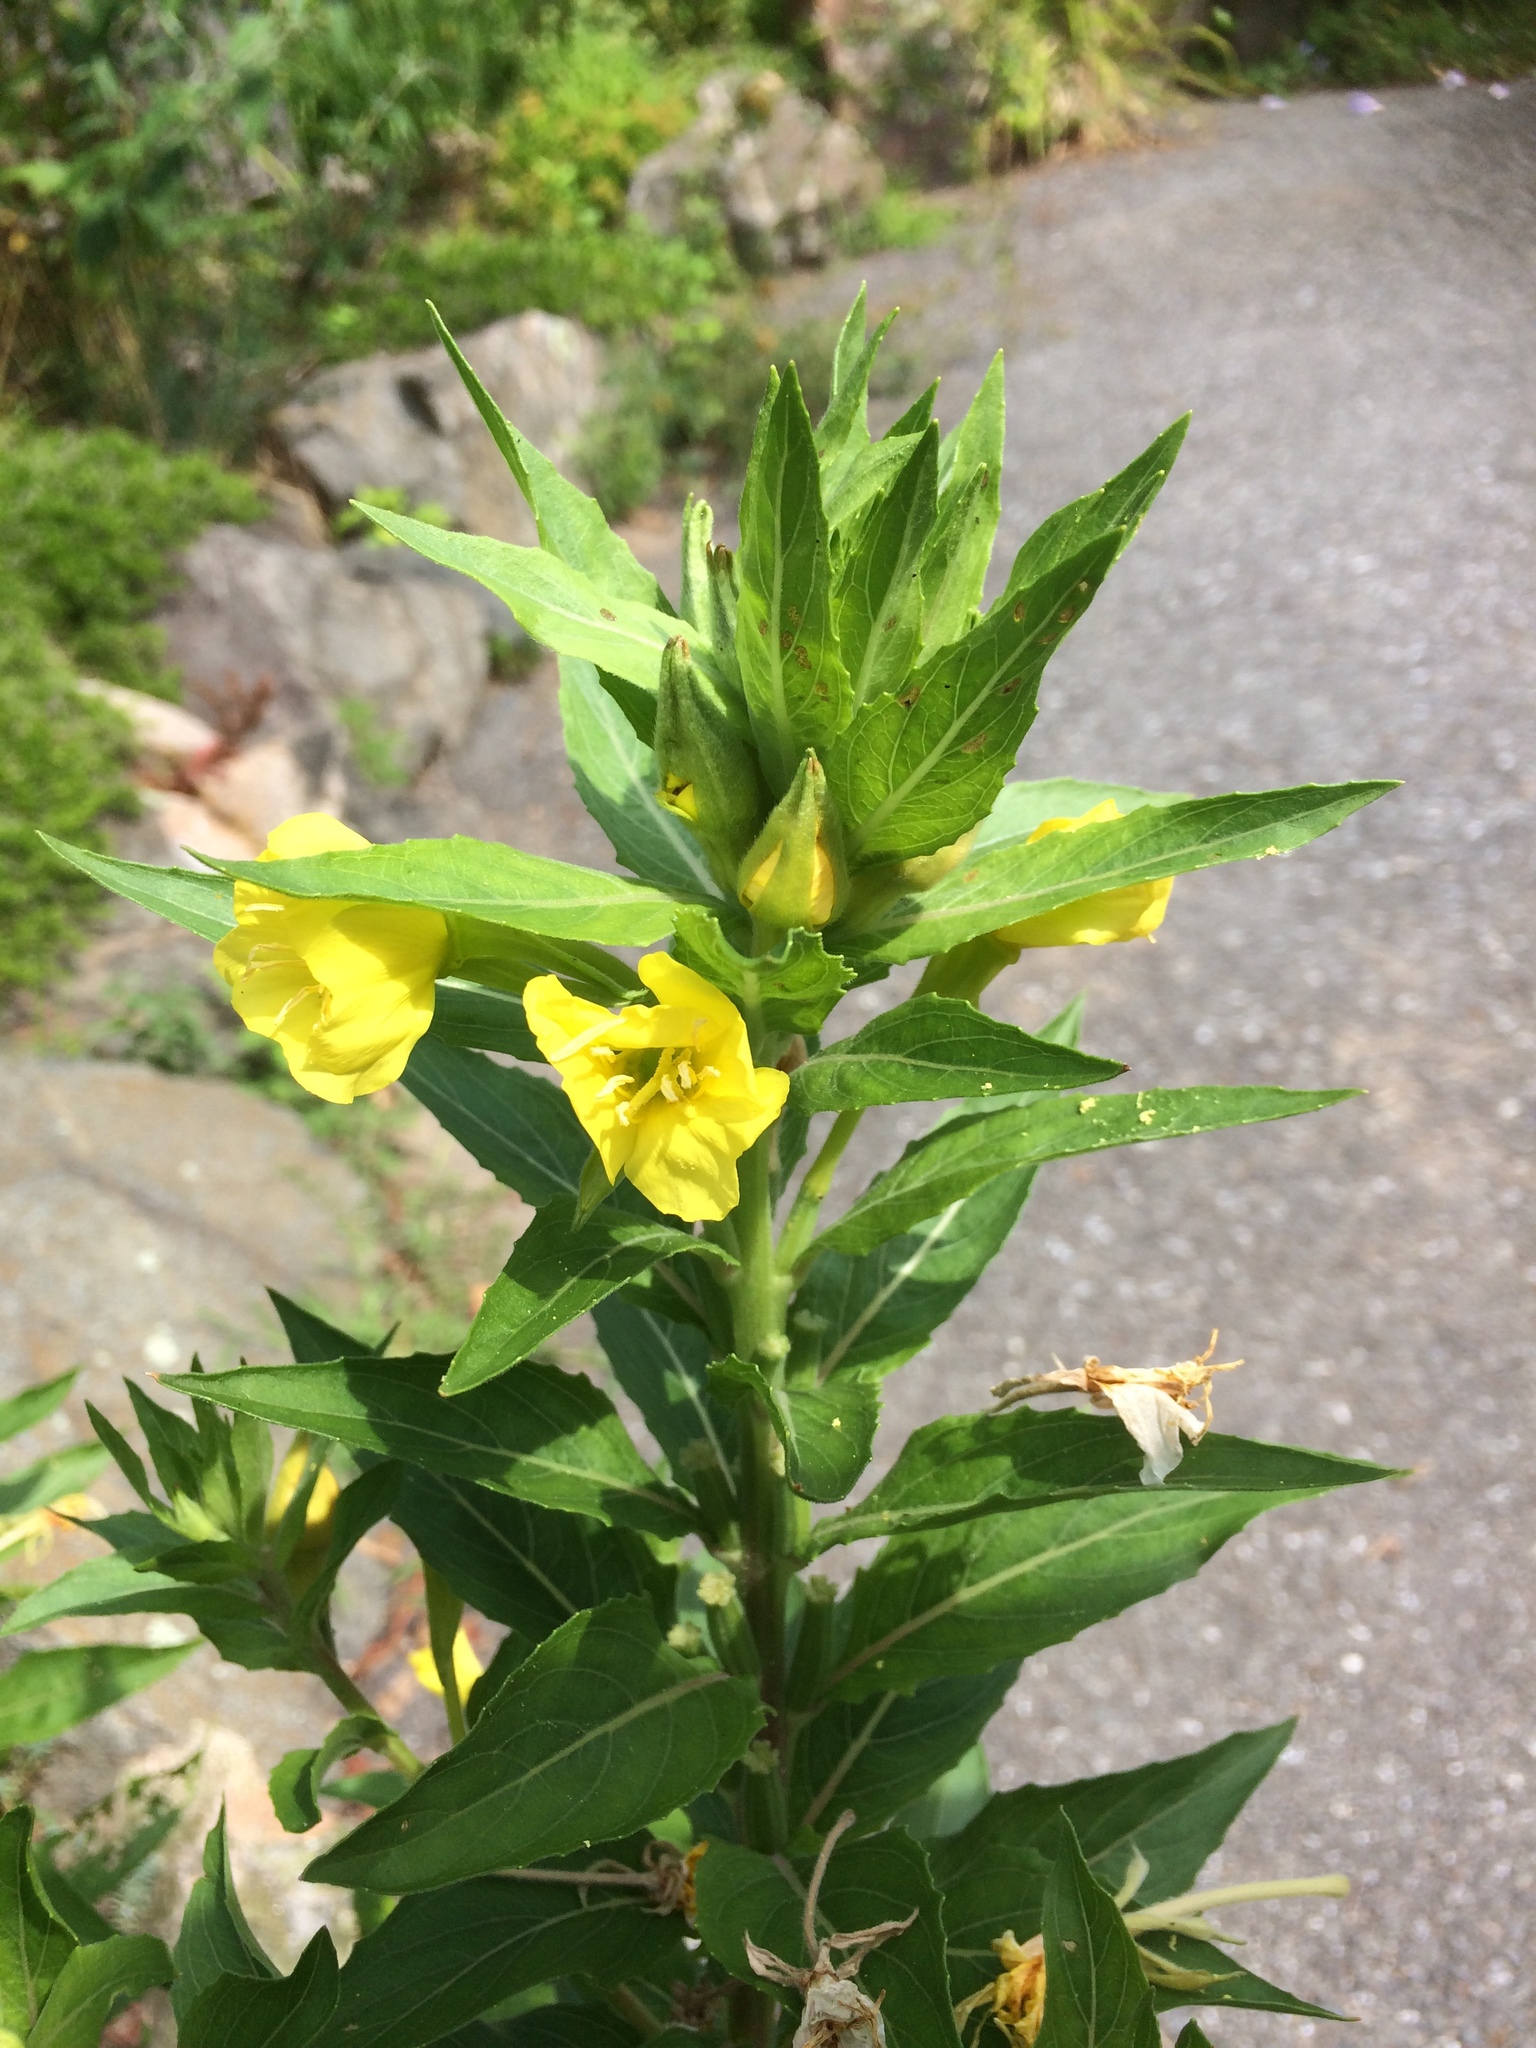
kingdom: Plantae
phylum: Tracheophyta
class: Magnoliopsida
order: Myrtales
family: Onagraceae
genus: Oenothera
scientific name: Oenothera biennis
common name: Common evening-primrose
